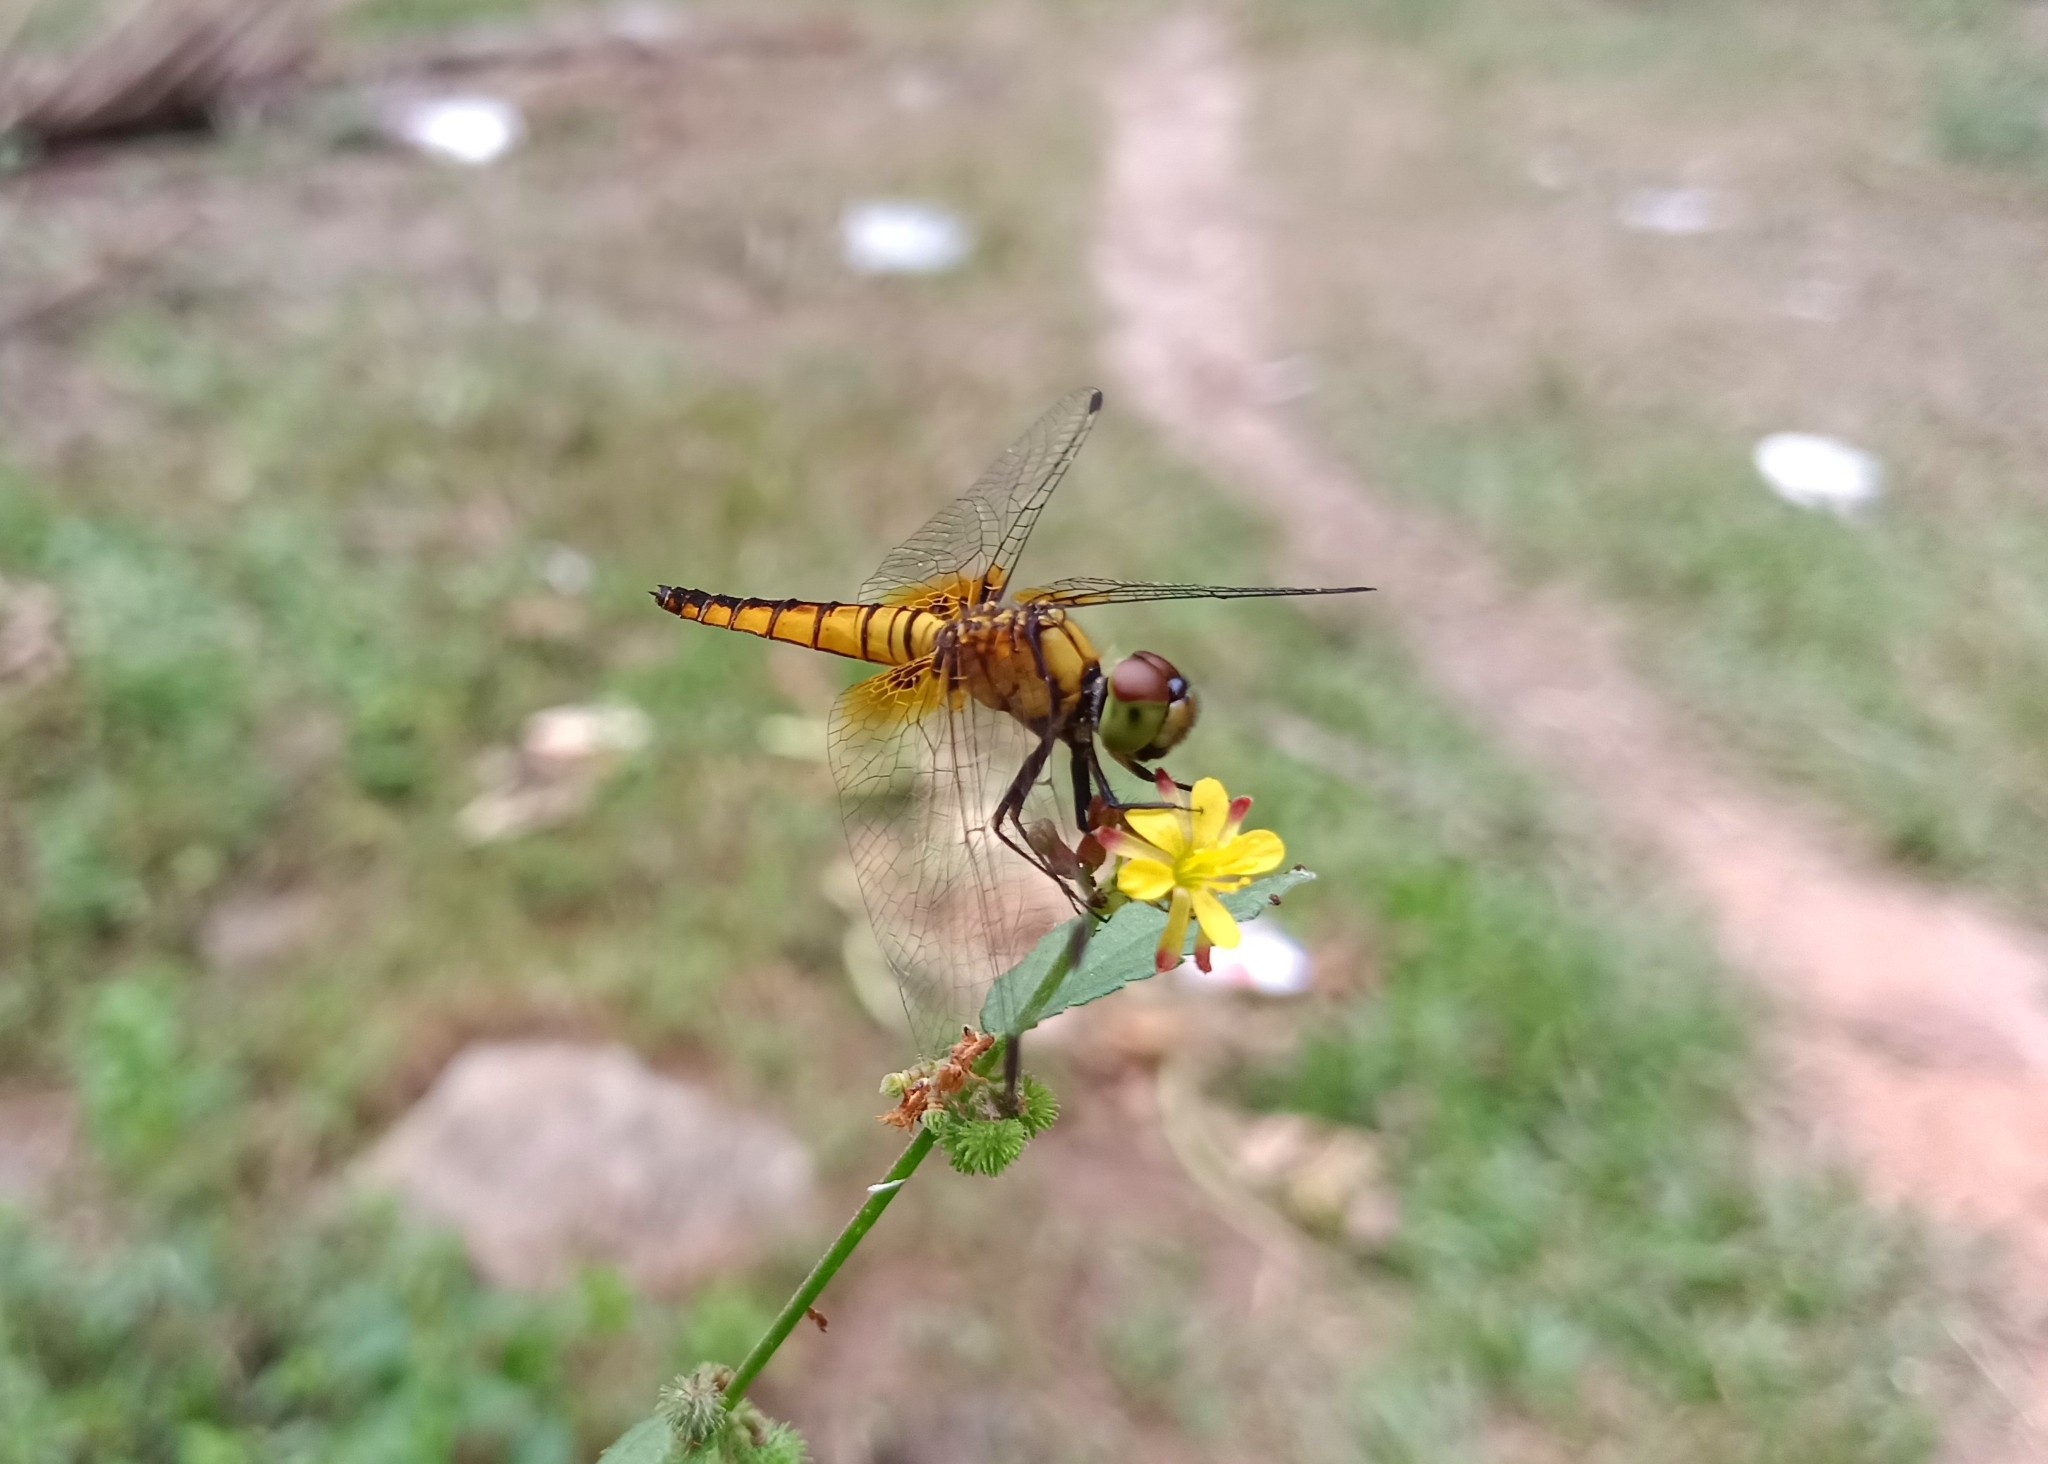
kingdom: Animalia
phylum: Arthropoda
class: Insecta
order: Odonata
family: Libellulidae
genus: Aethriamanta
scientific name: Aethriamanta brevipennis
